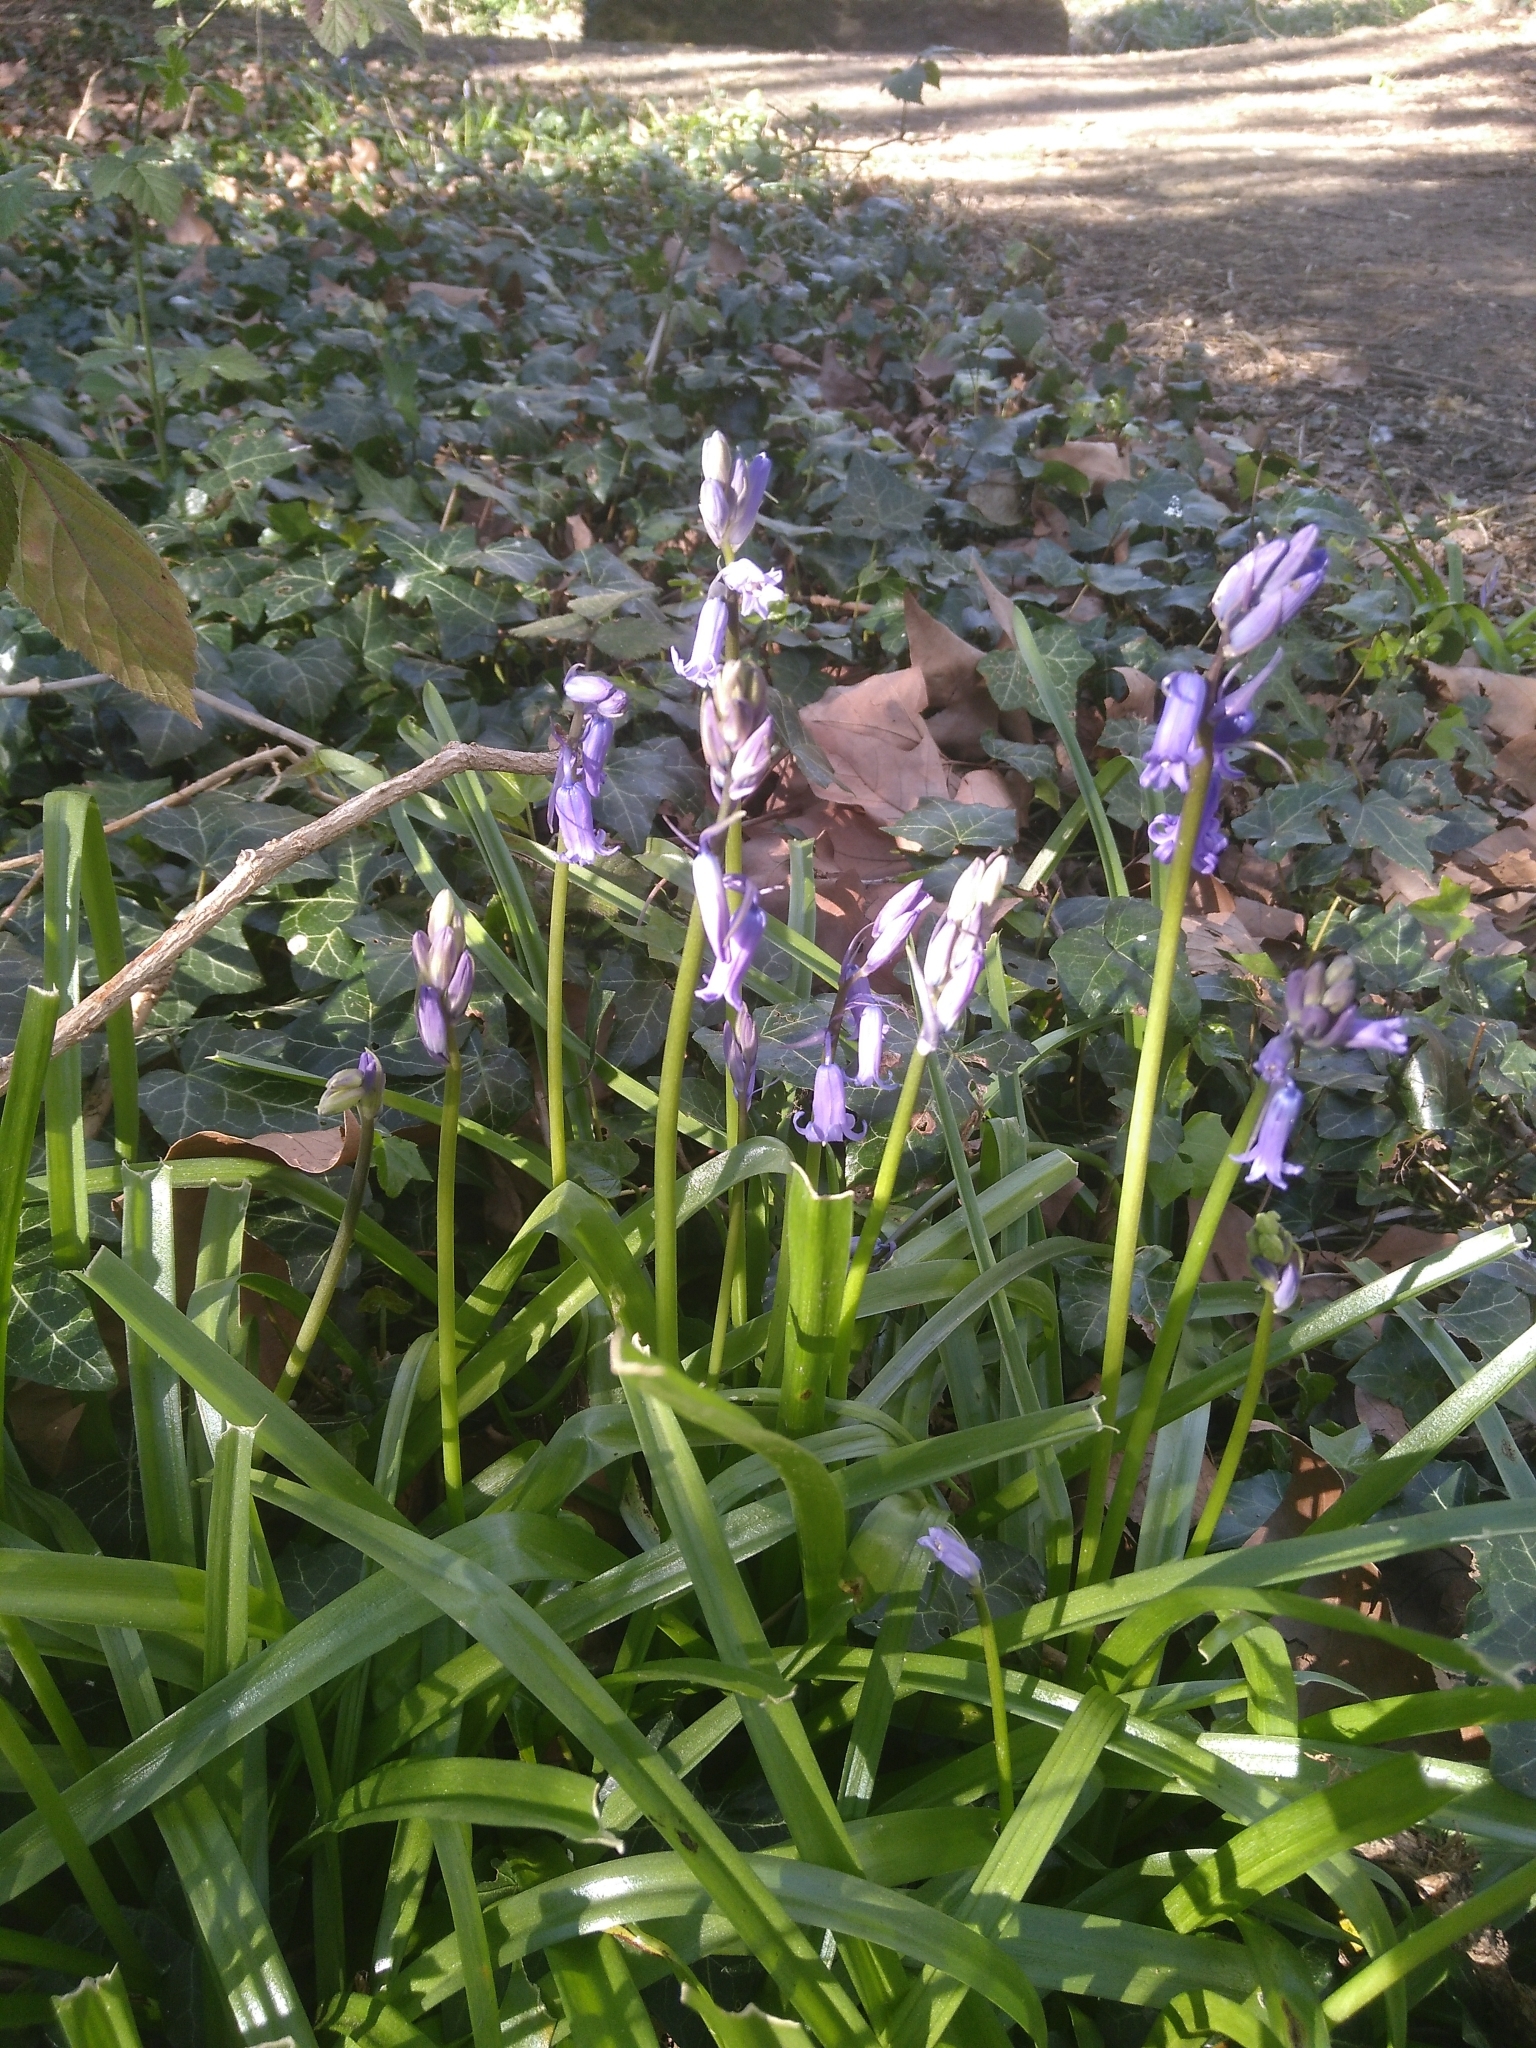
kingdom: Plantae
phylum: Tracheophyta
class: Liliopsida
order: Asparagales
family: Asparagaceae
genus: Hyacinthoides
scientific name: Hyacinthoides non-scripta
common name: Bluebell
